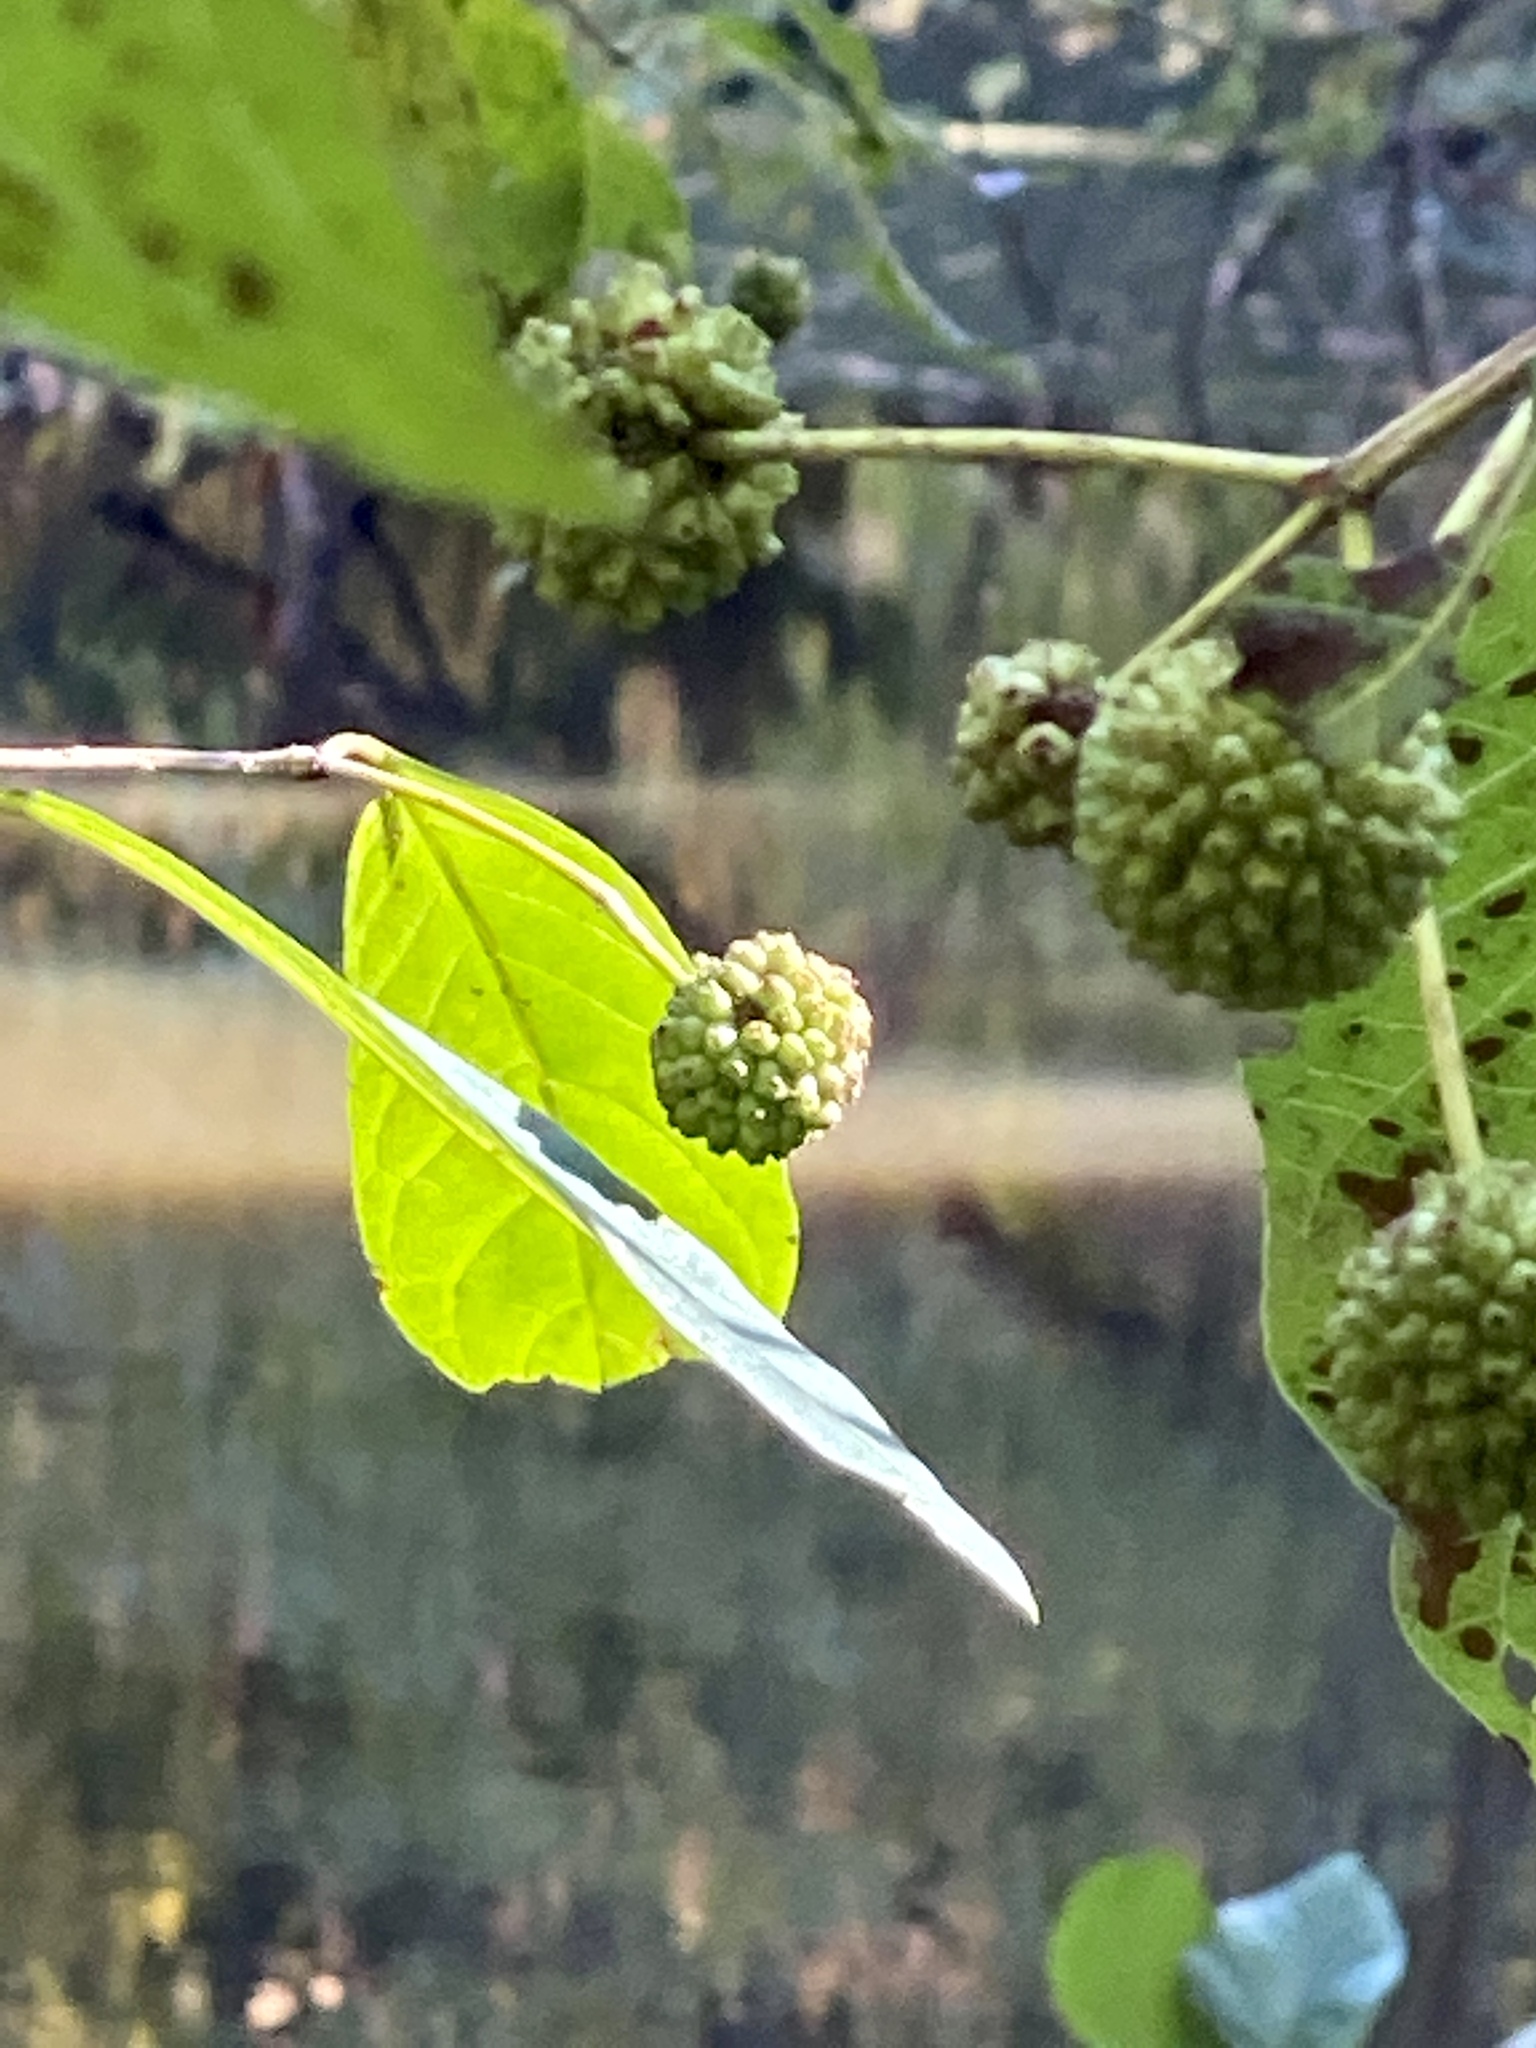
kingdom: Plantae
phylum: Tracheophyta
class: Magnoliopsida
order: Gentianales
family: Rubiaceae
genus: Cephalanthus
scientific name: Cephalanthus occidentalis
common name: Button-willow
